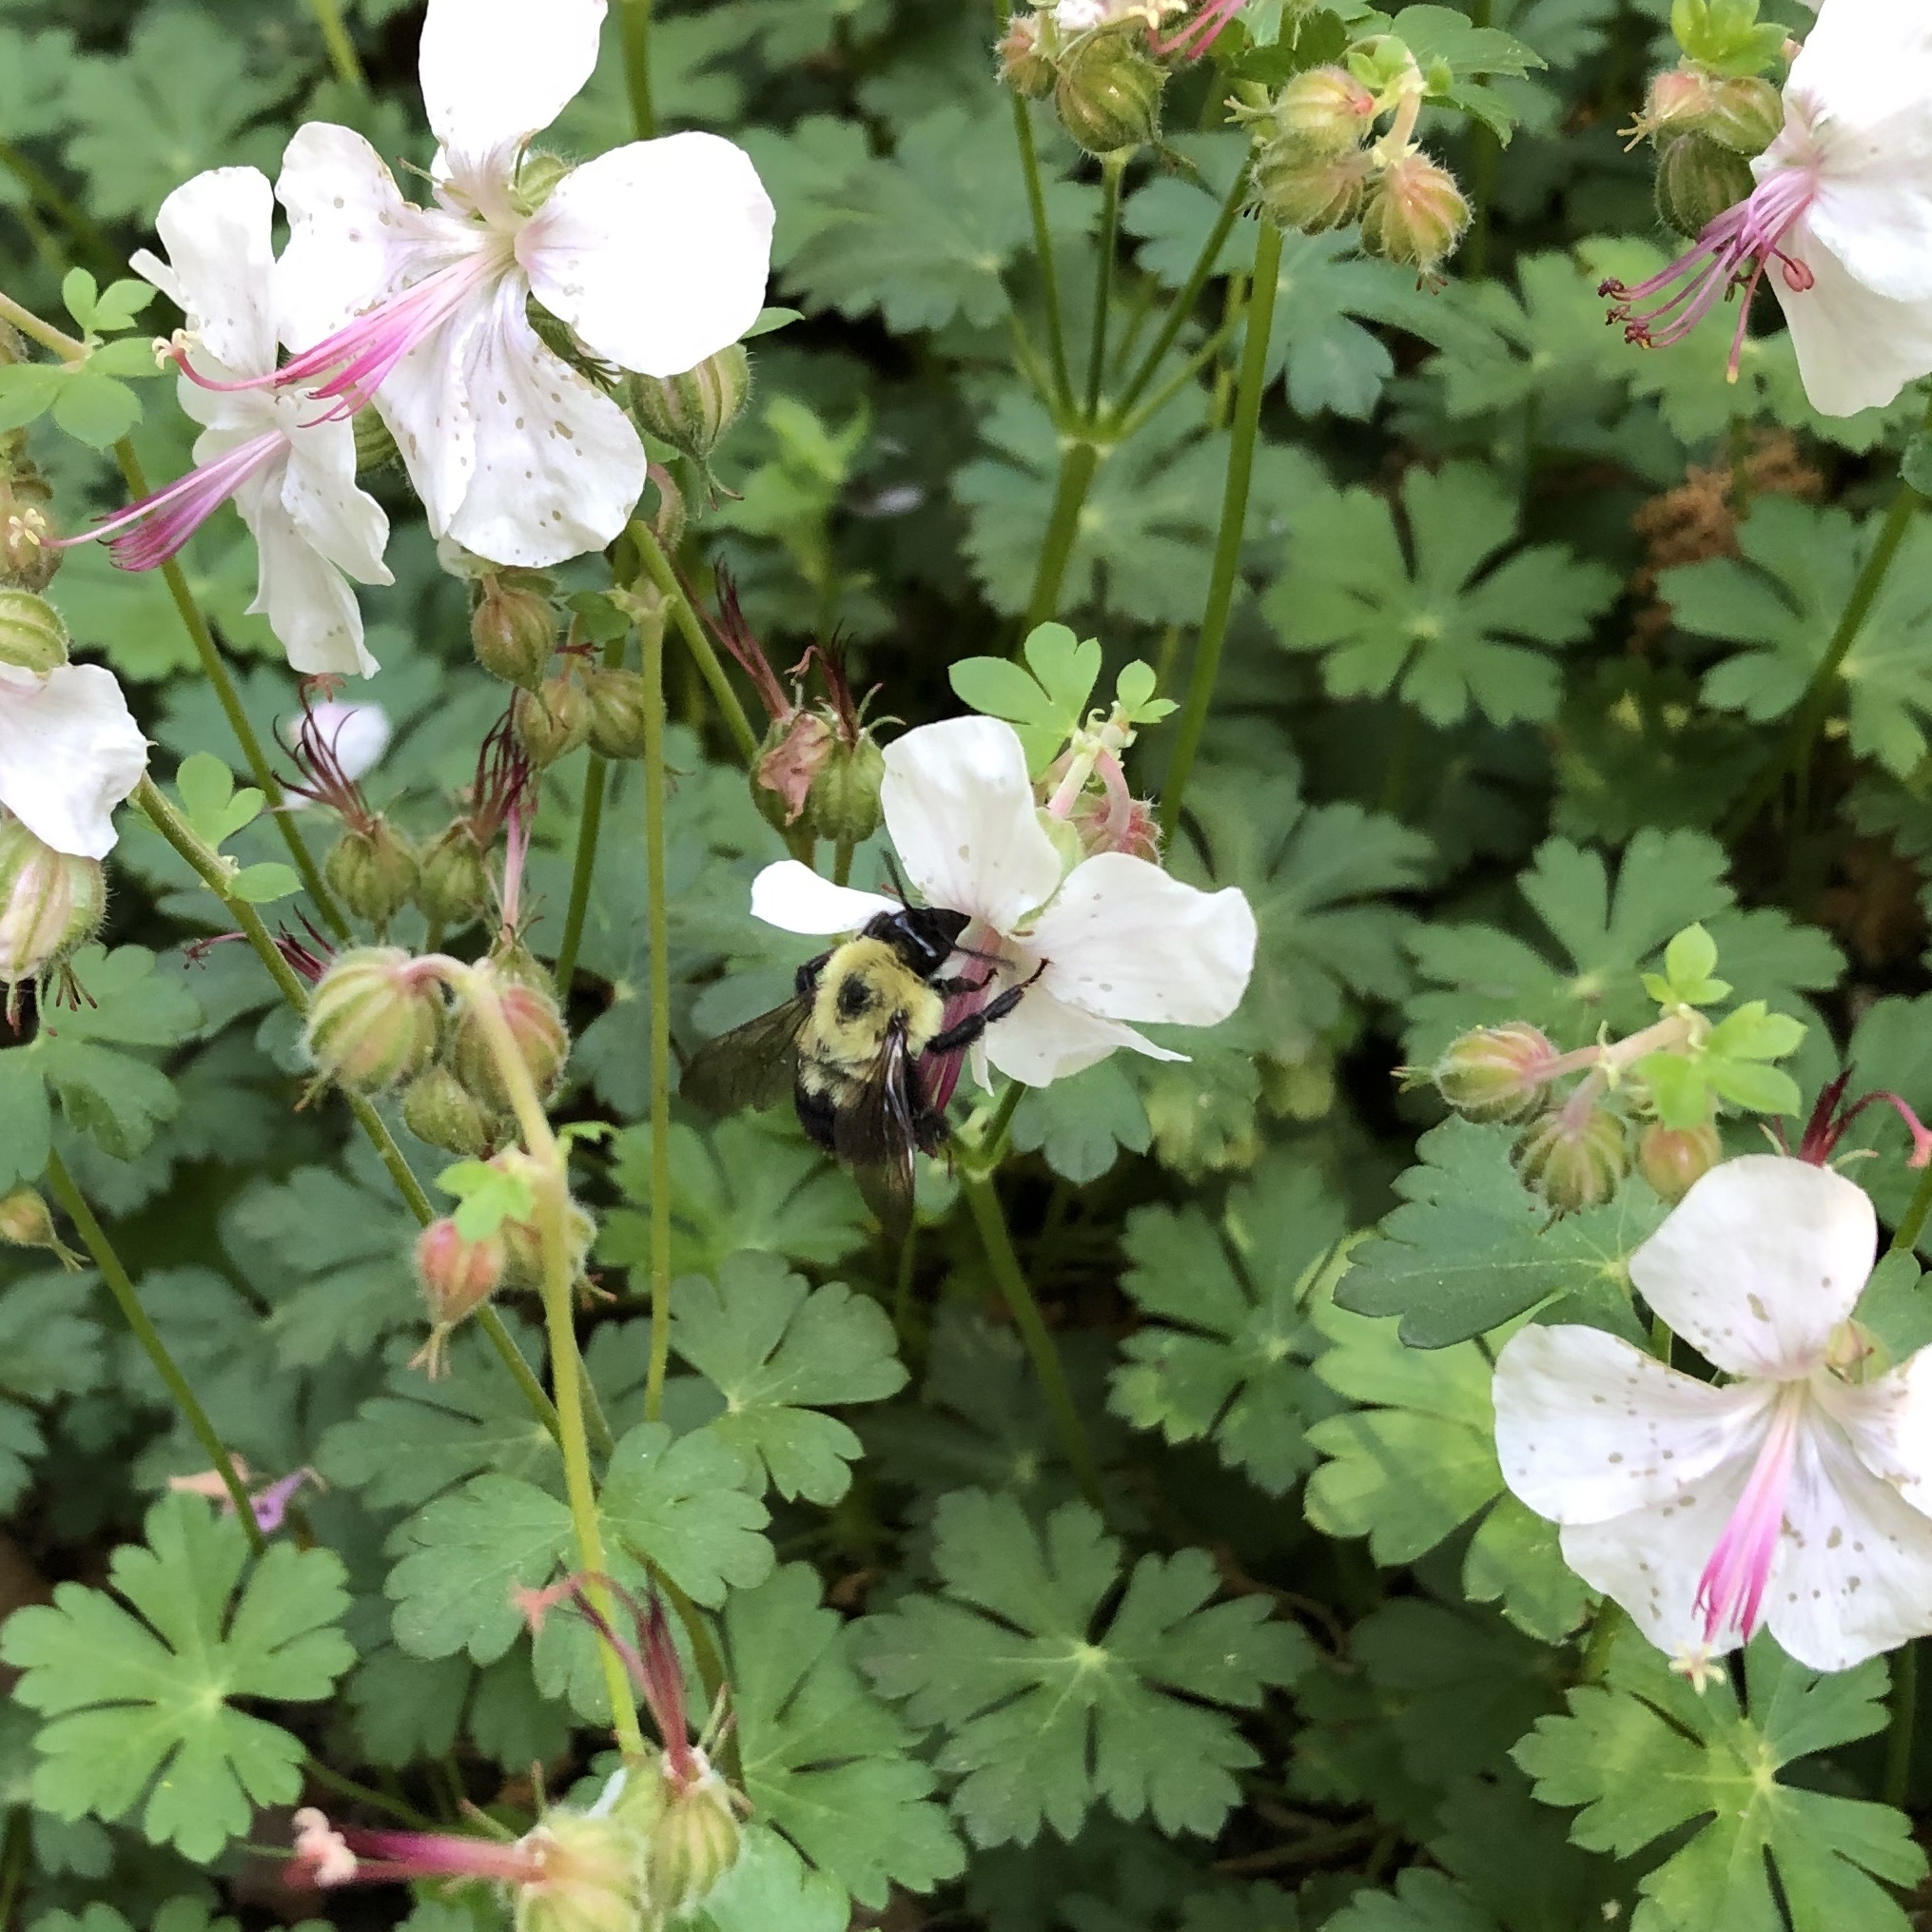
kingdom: Animalia
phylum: Arthropoda
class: Insecta
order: Hymenoptera
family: Apidae
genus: Bombus
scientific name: Bombus bimaculatus
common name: Two-spotted bumble bee
